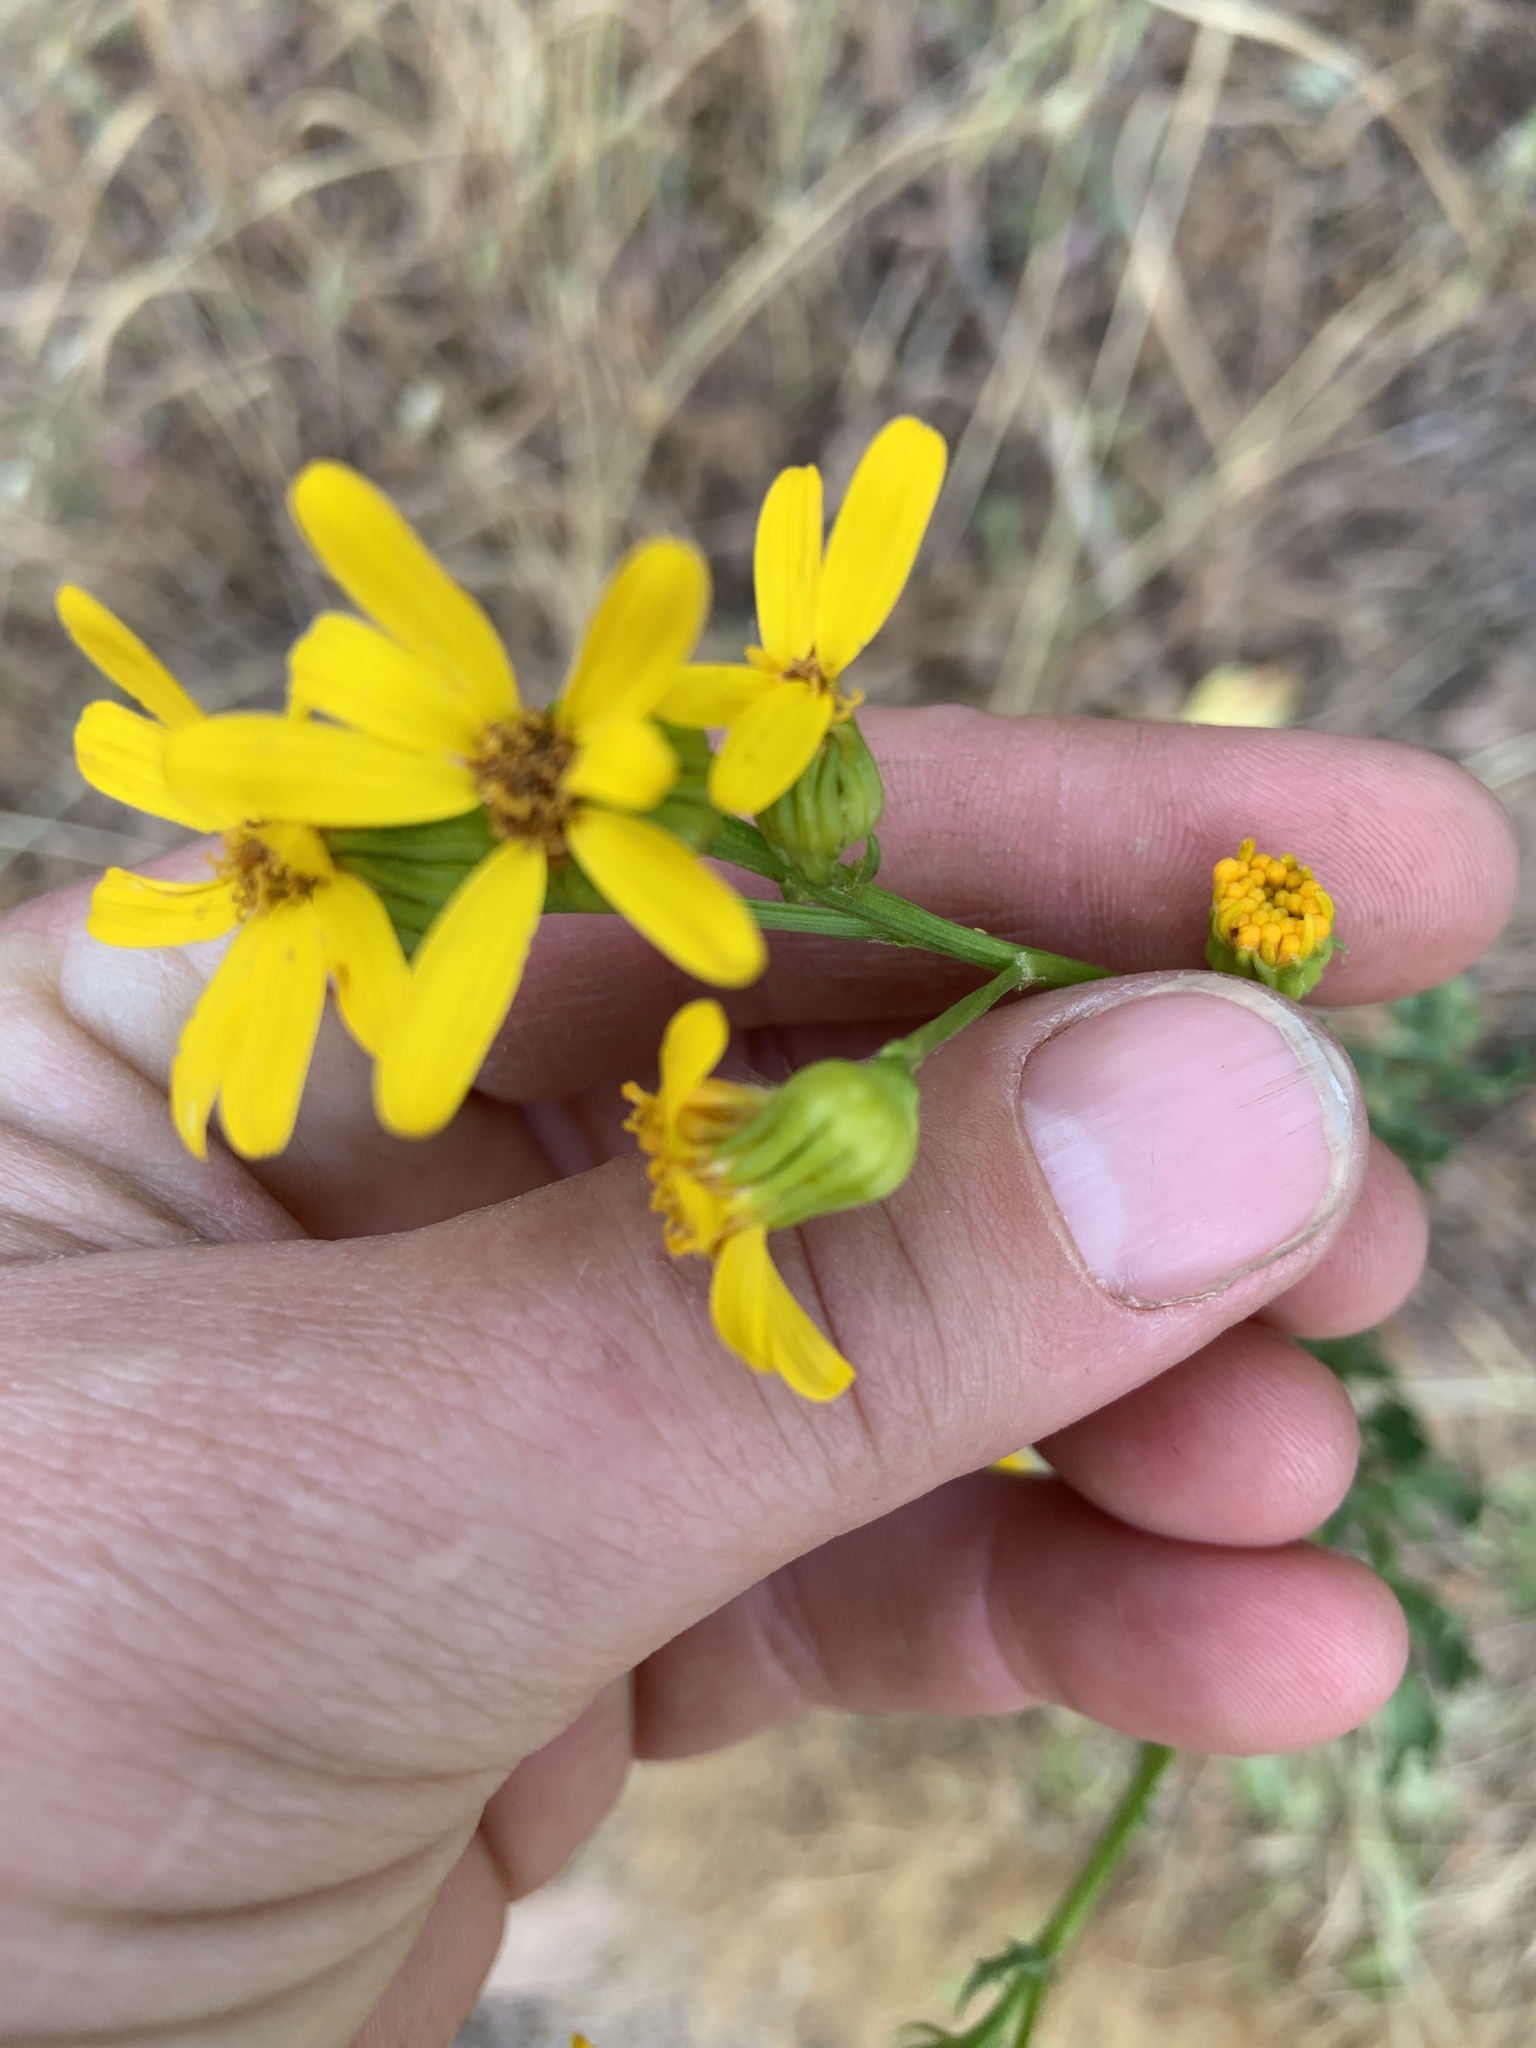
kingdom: Plantae
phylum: Tracheophyta
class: Magnoliopsida
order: Asterales
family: Asteraceae
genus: Packera
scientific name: Packera breweri
